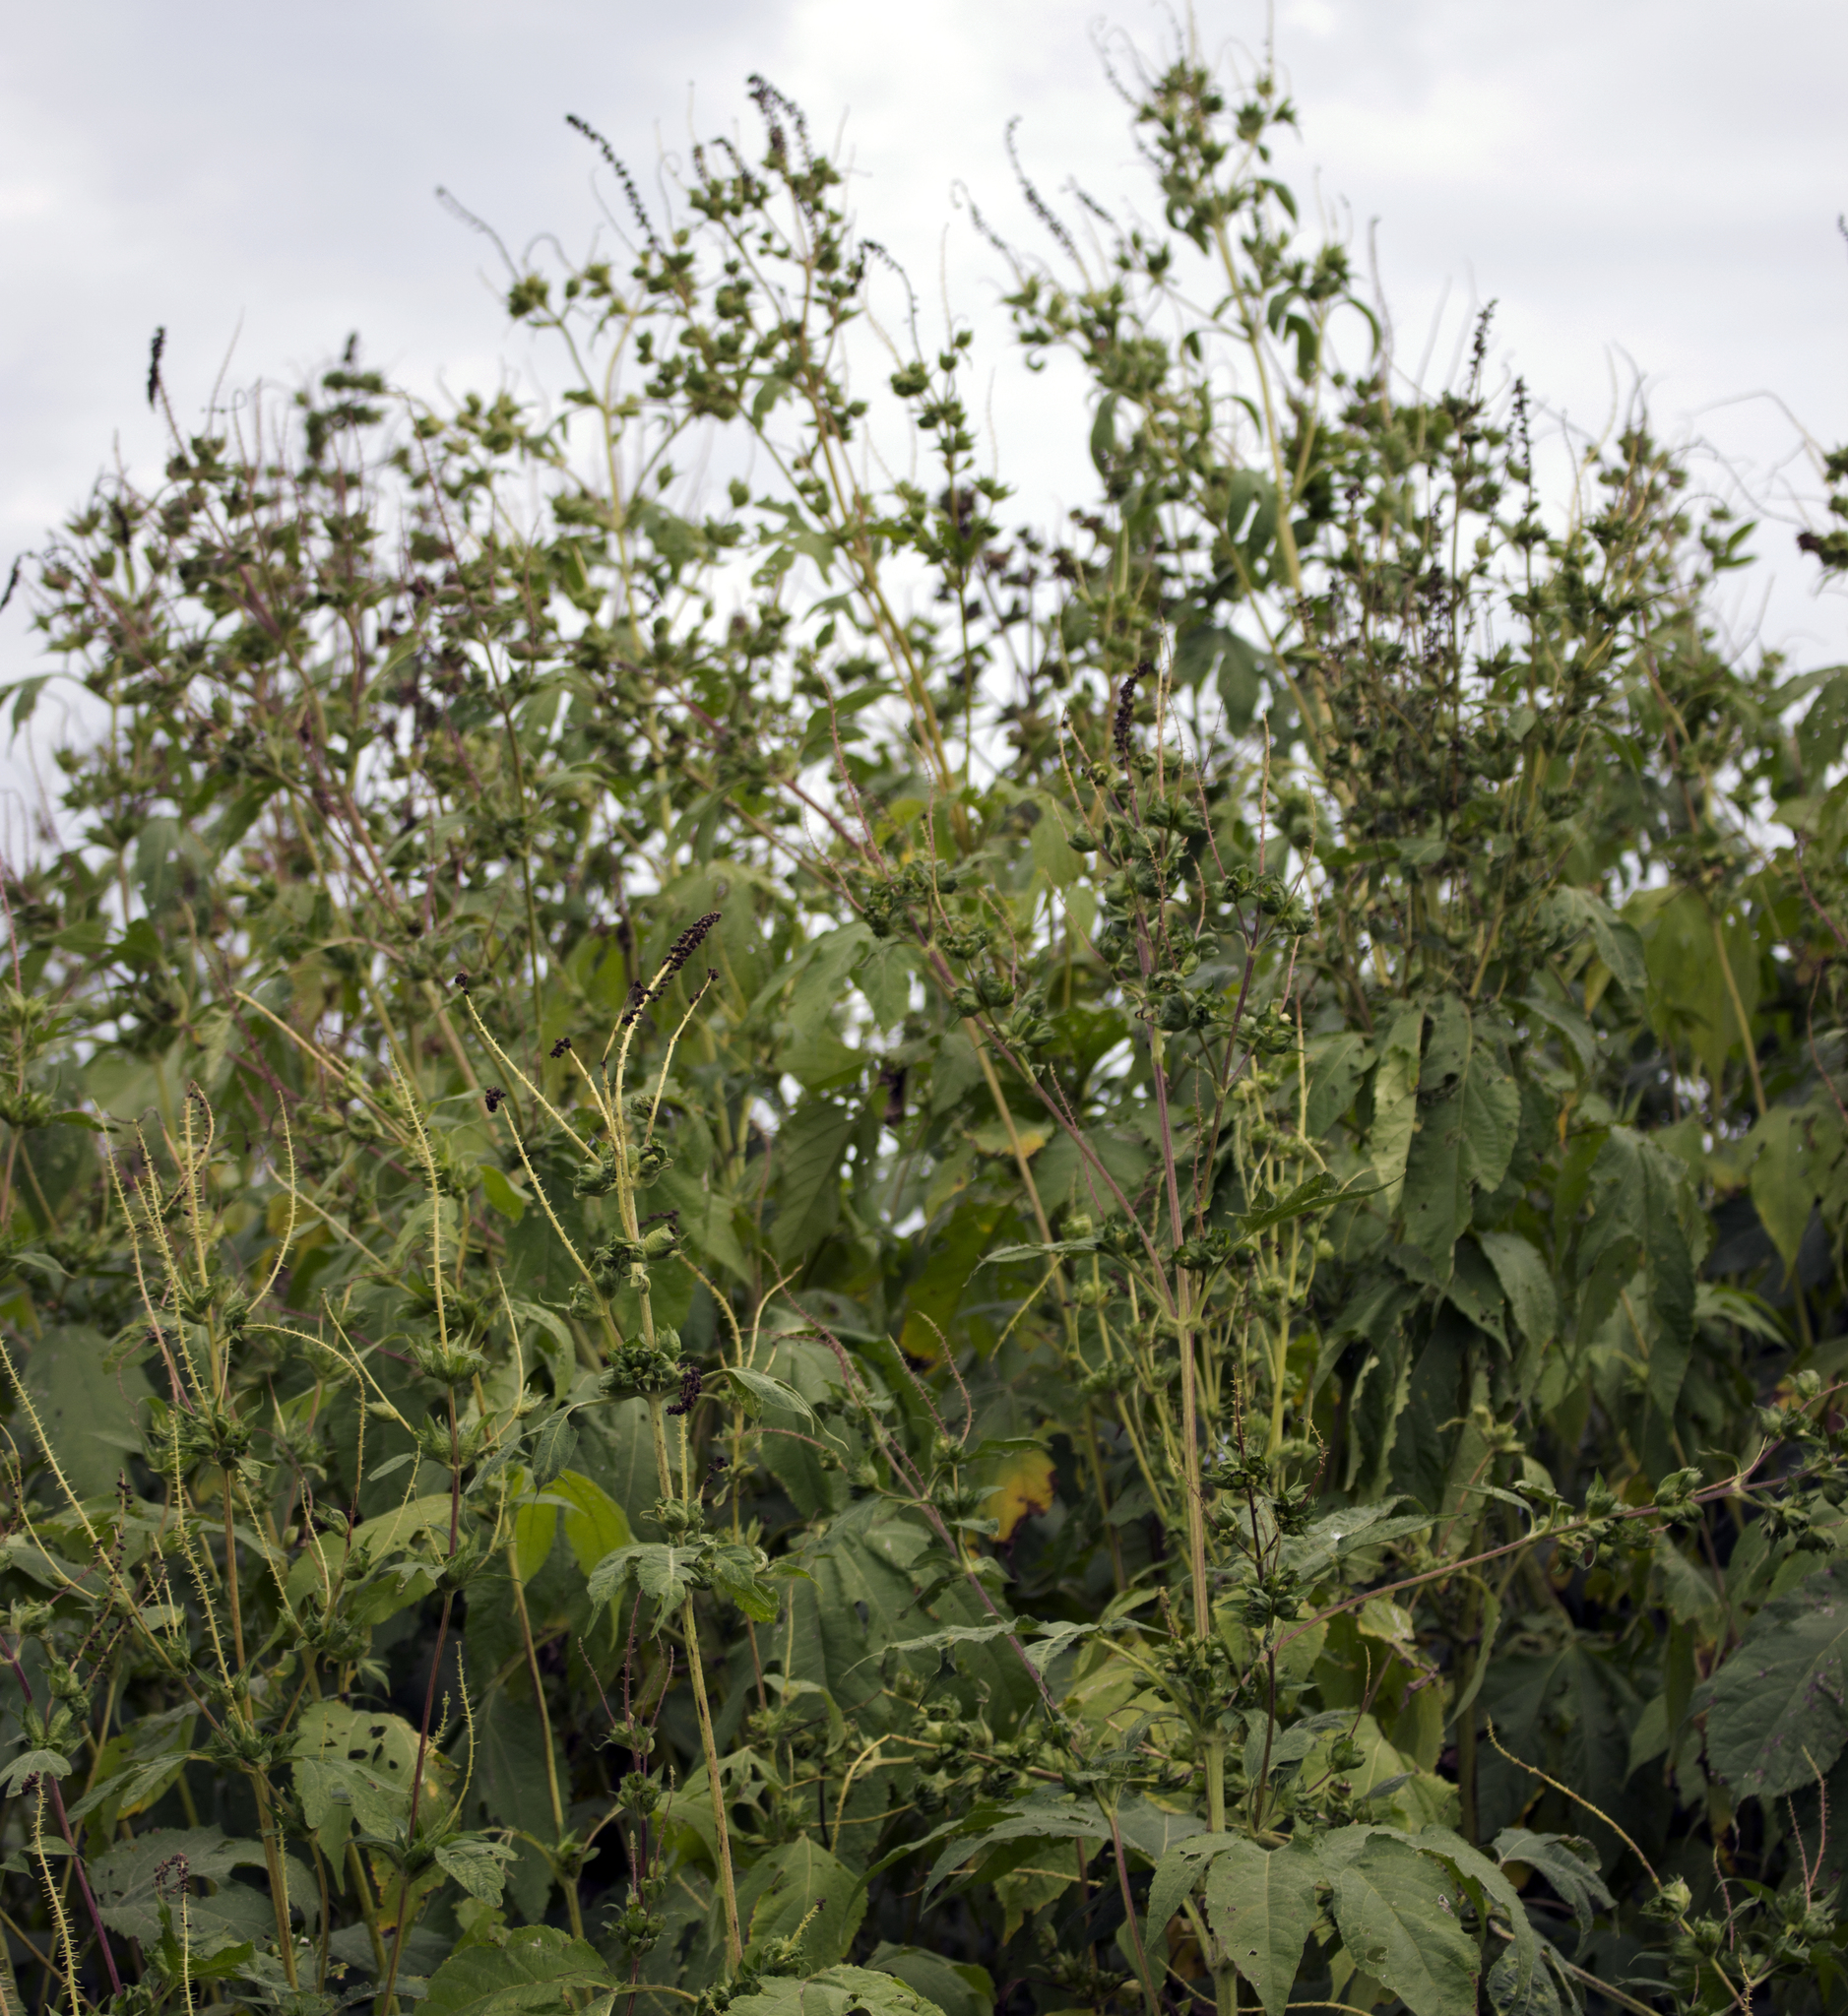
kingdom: Plantae
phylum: Tracheophyta
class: Magnoliopsida
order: Asterales
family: Asteraceae
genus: Ambrosia
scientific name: Ambrosia trifida
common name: Giant ragweed
